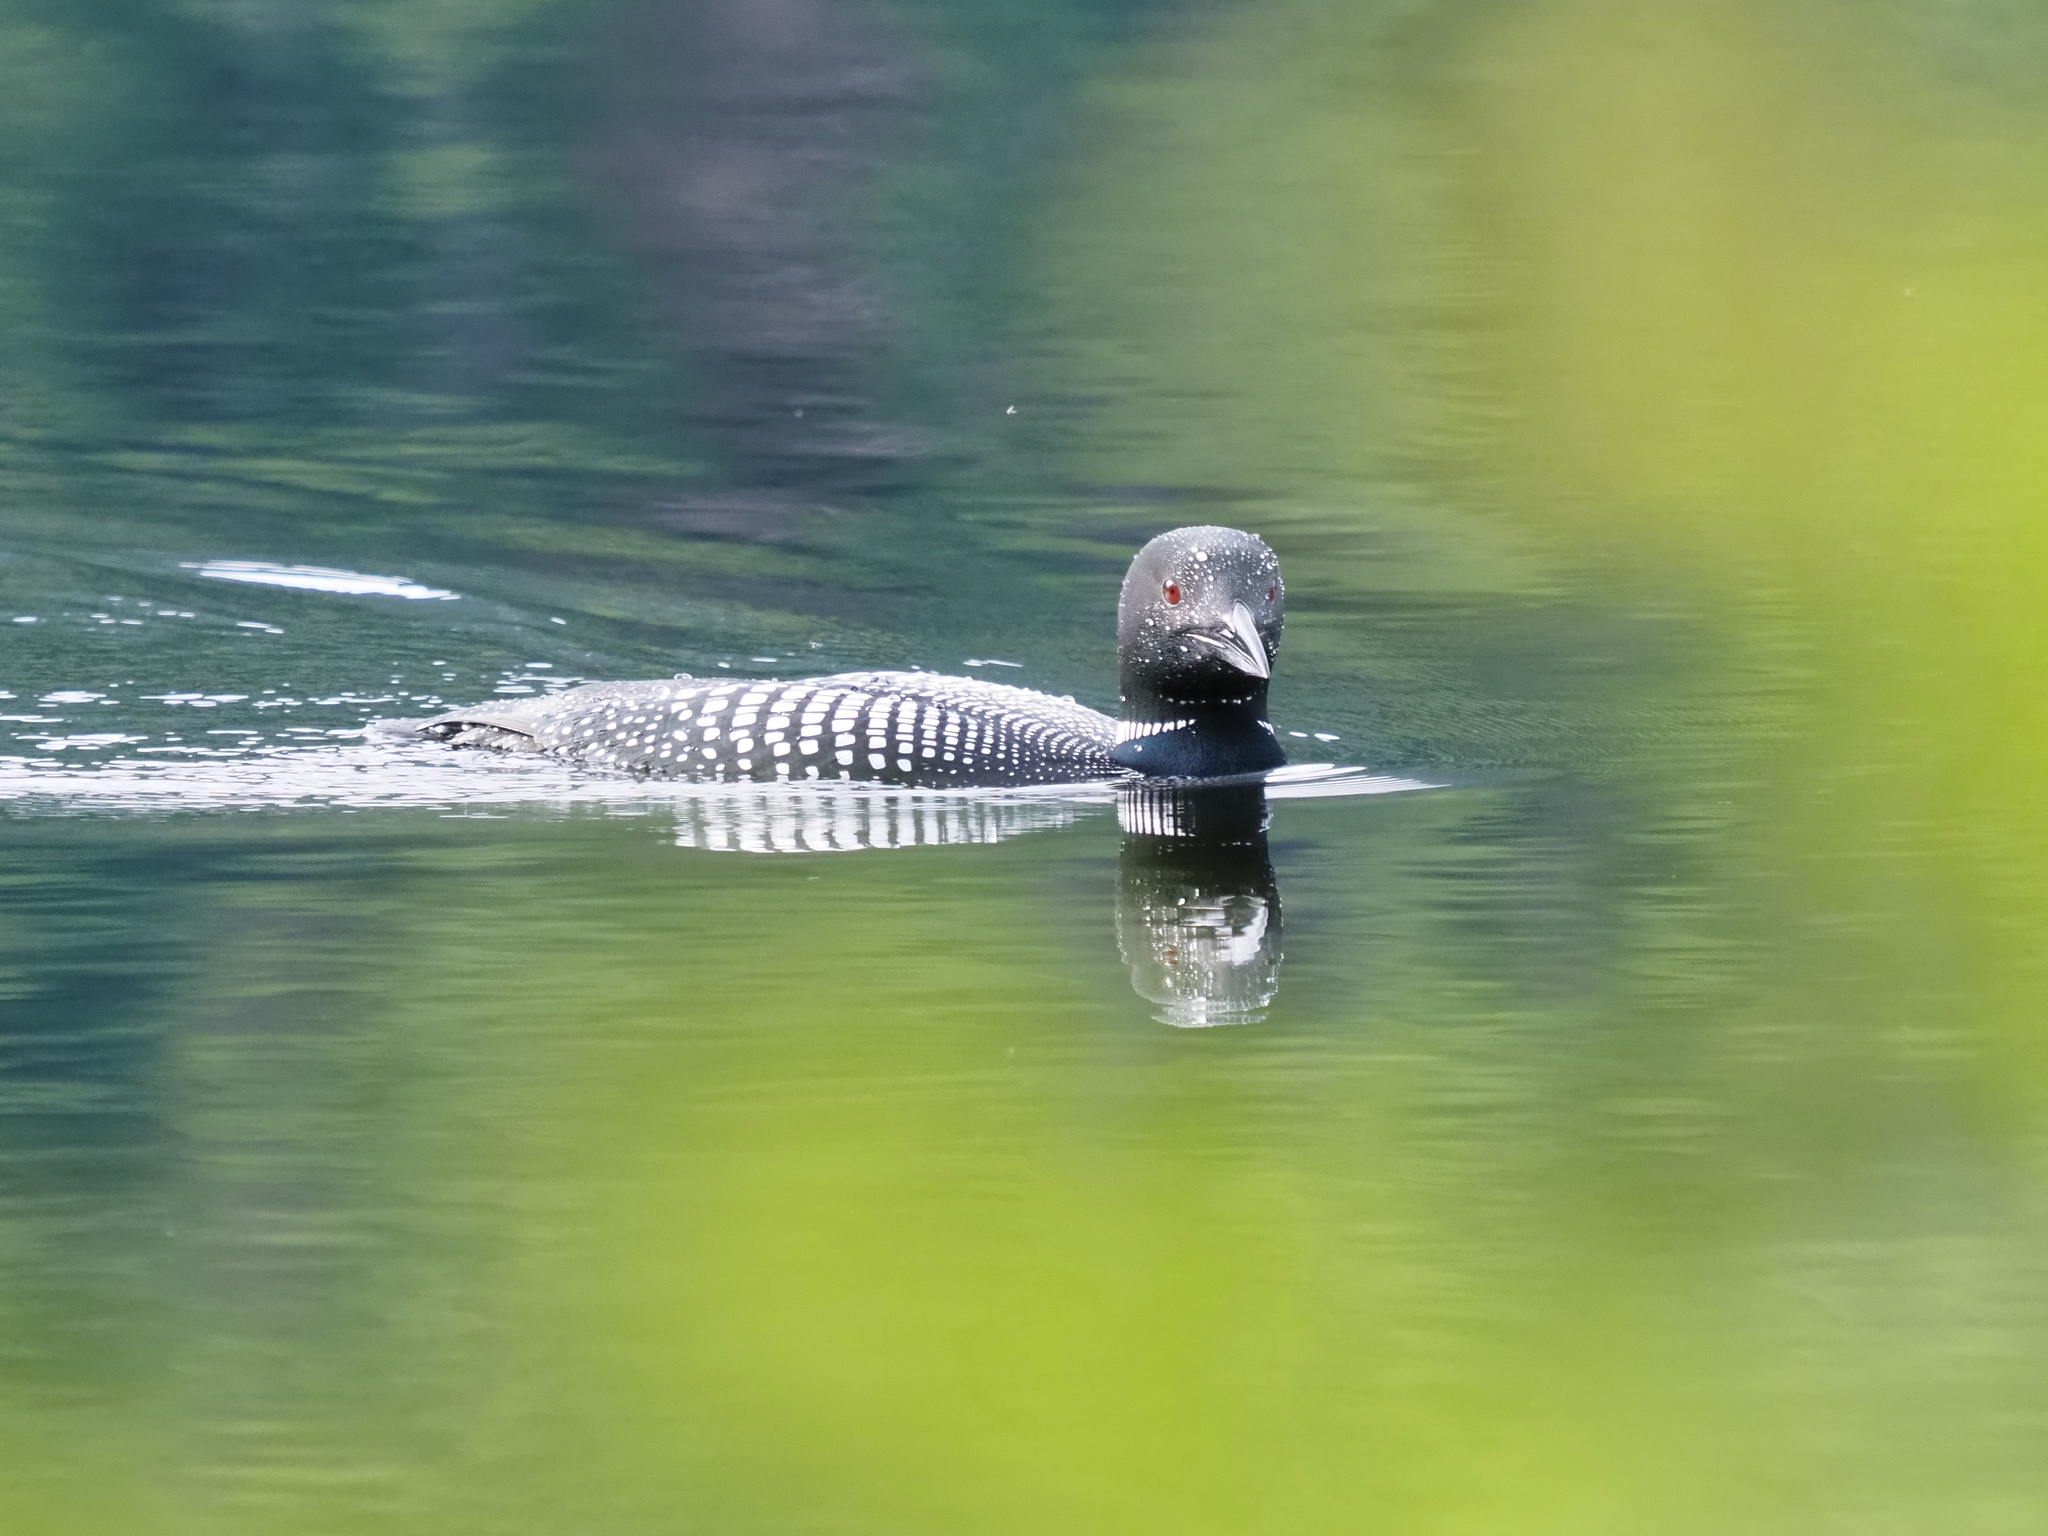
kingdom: Animalia
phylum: Chordata
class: Aves
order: Gaviiformes
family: Gaviidae
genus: Gavia
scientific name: Gavia immer
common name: Common loon
